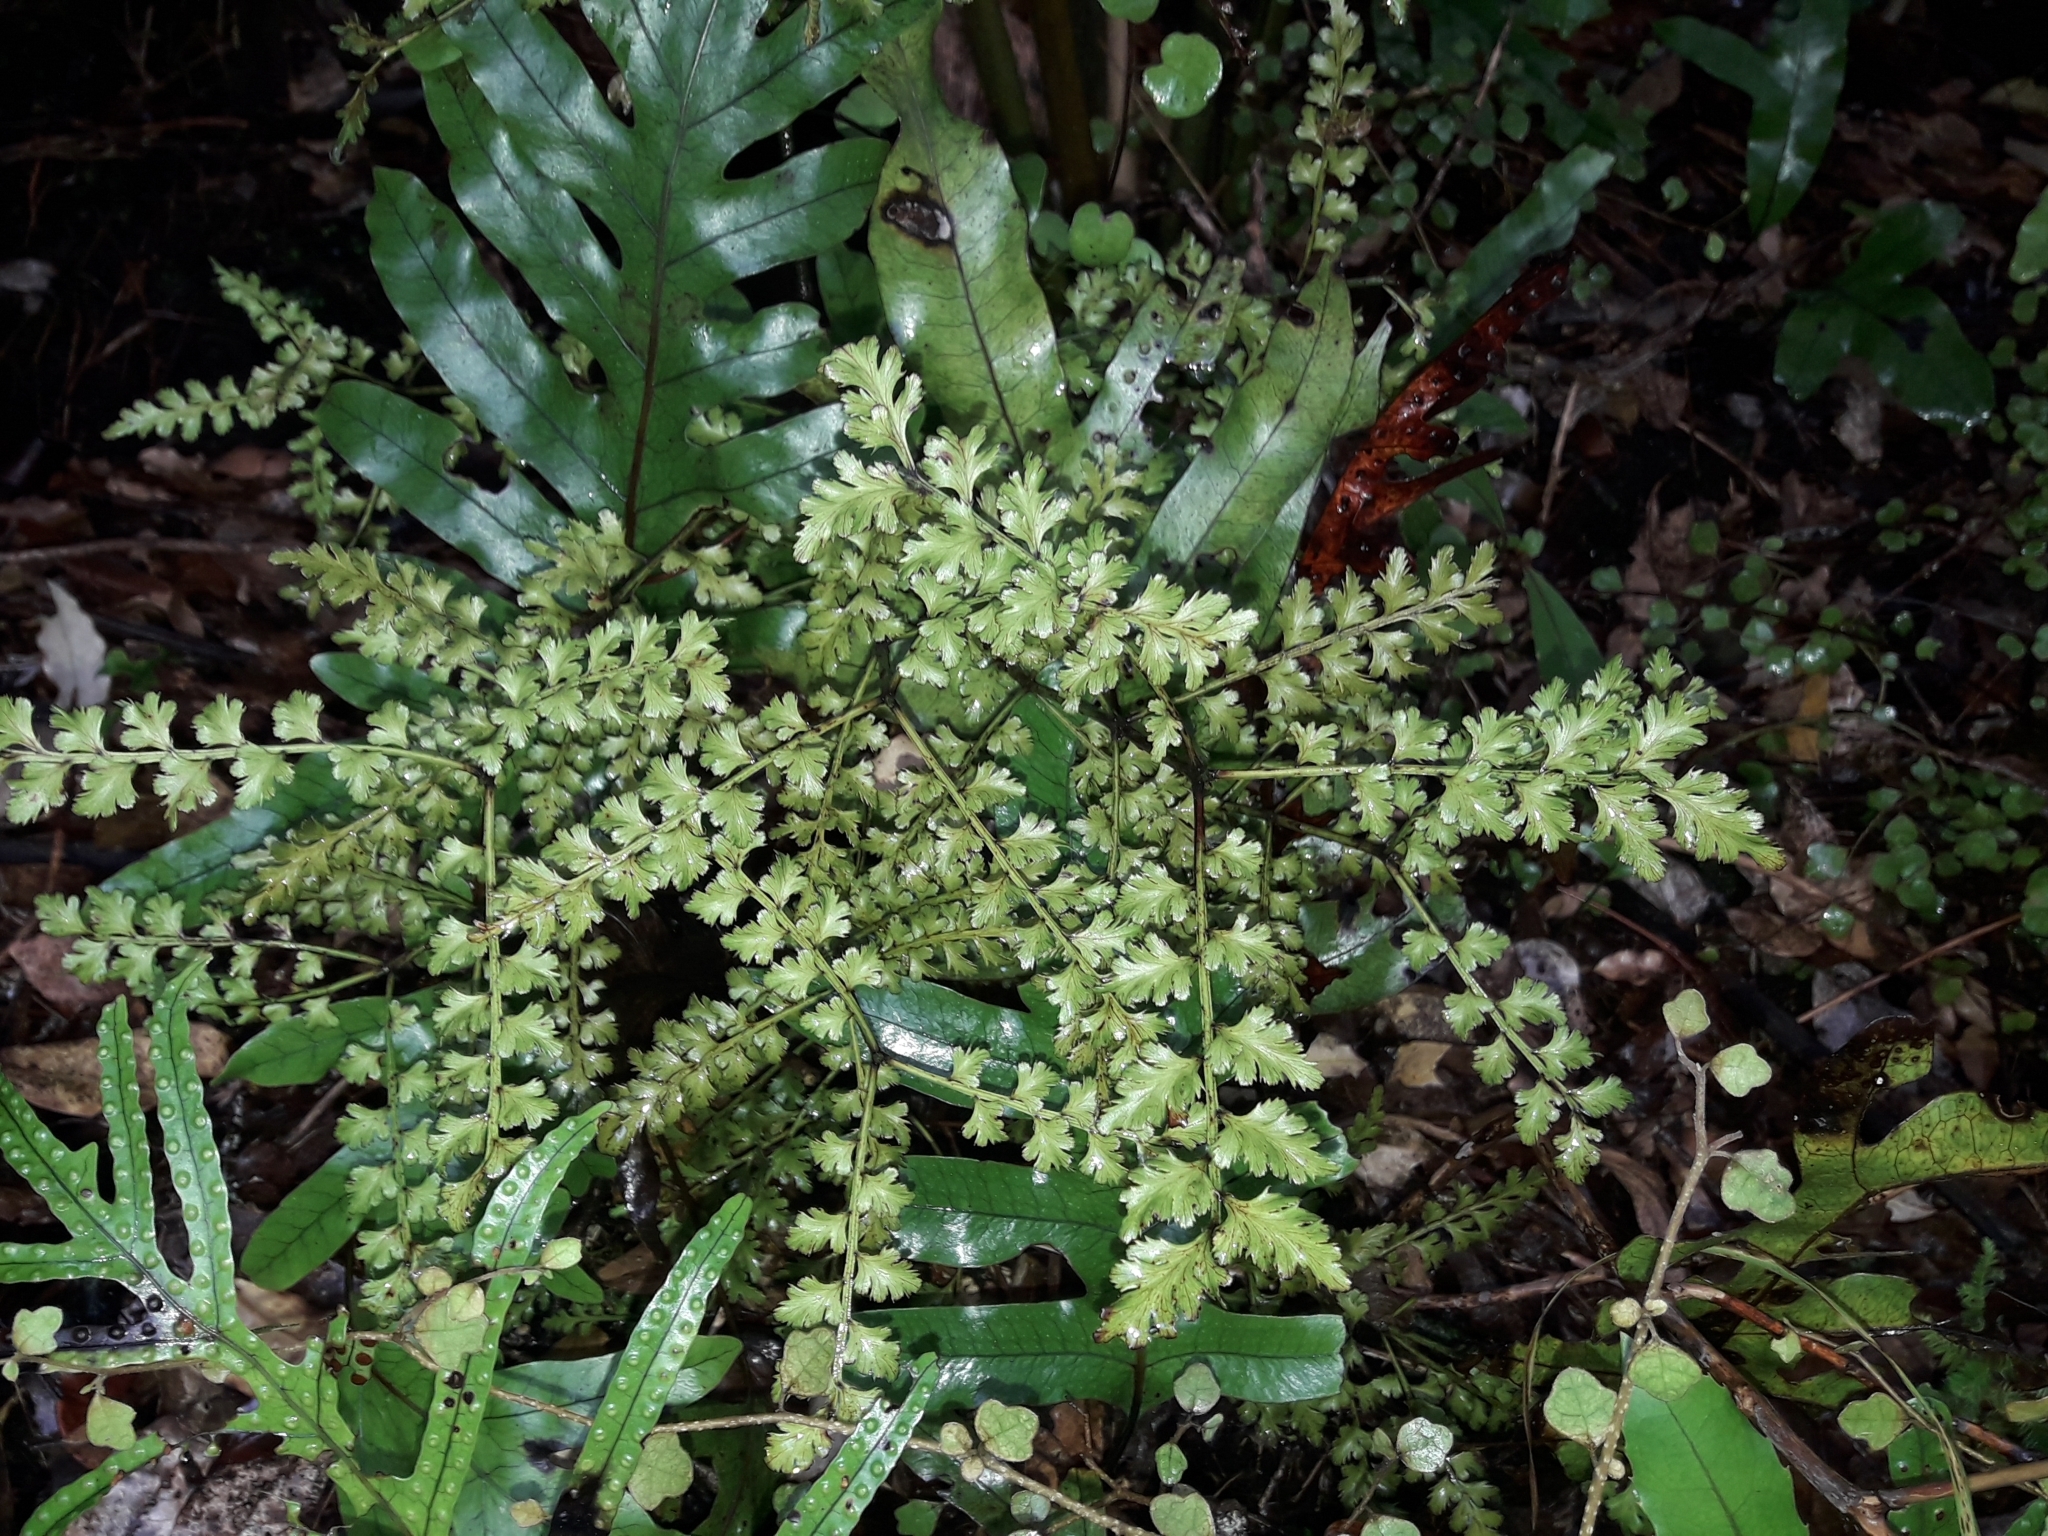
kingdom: Plantae
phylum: Tracheophyta
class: Pinopsida
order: Pinales
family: Phyllocladaceae
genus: Phyllocladus
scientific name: Phyllocladus trichomanoides
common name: Celery pine
